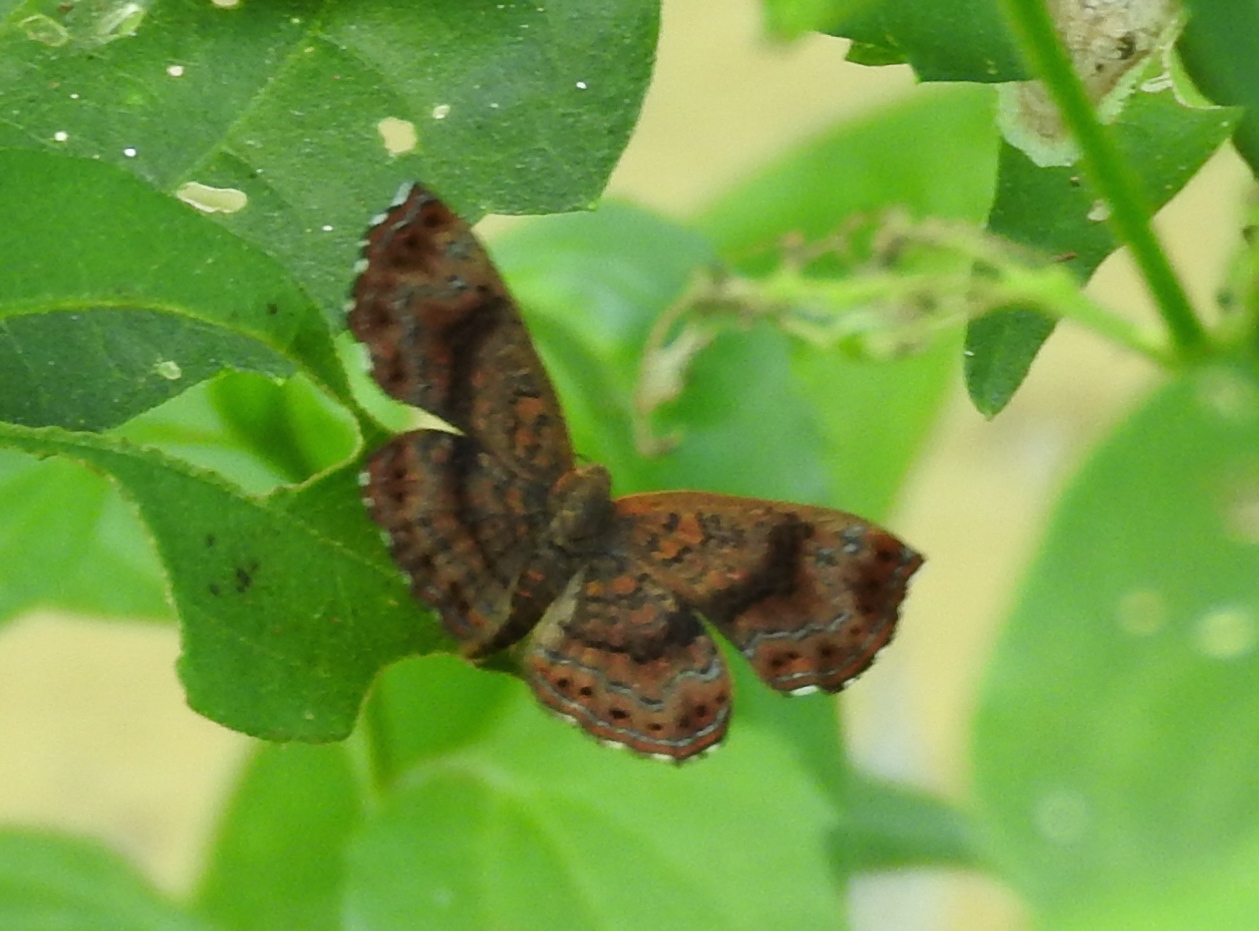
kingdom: Animalia
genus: Calephelis
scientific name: Calephelis
